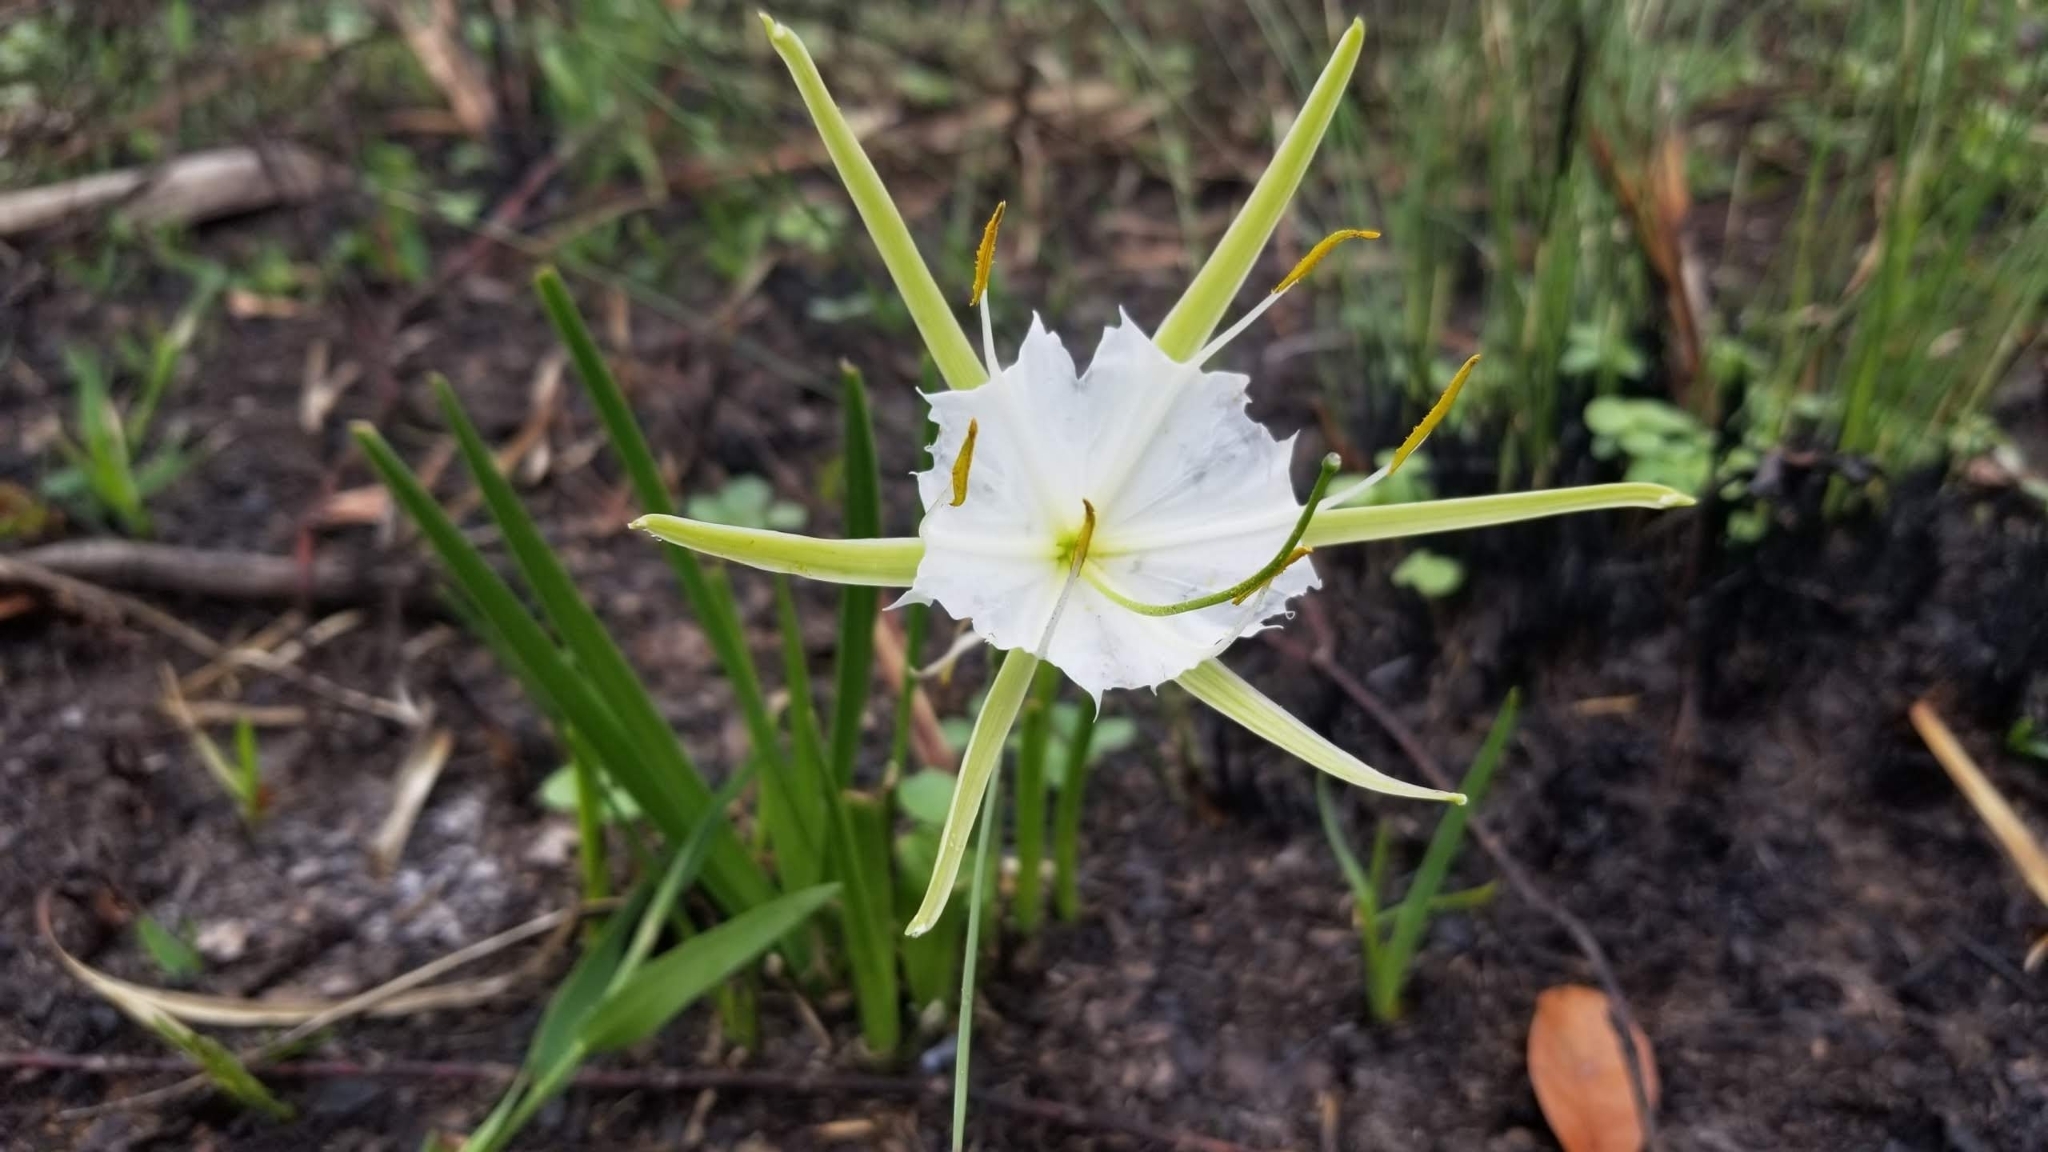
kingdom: Plantae
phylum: Tracheophyta
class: Liliopsida
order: Asparagales
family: Amaryllidaceae
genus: Hymenocallis
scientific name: Hymenocallis palmeri
